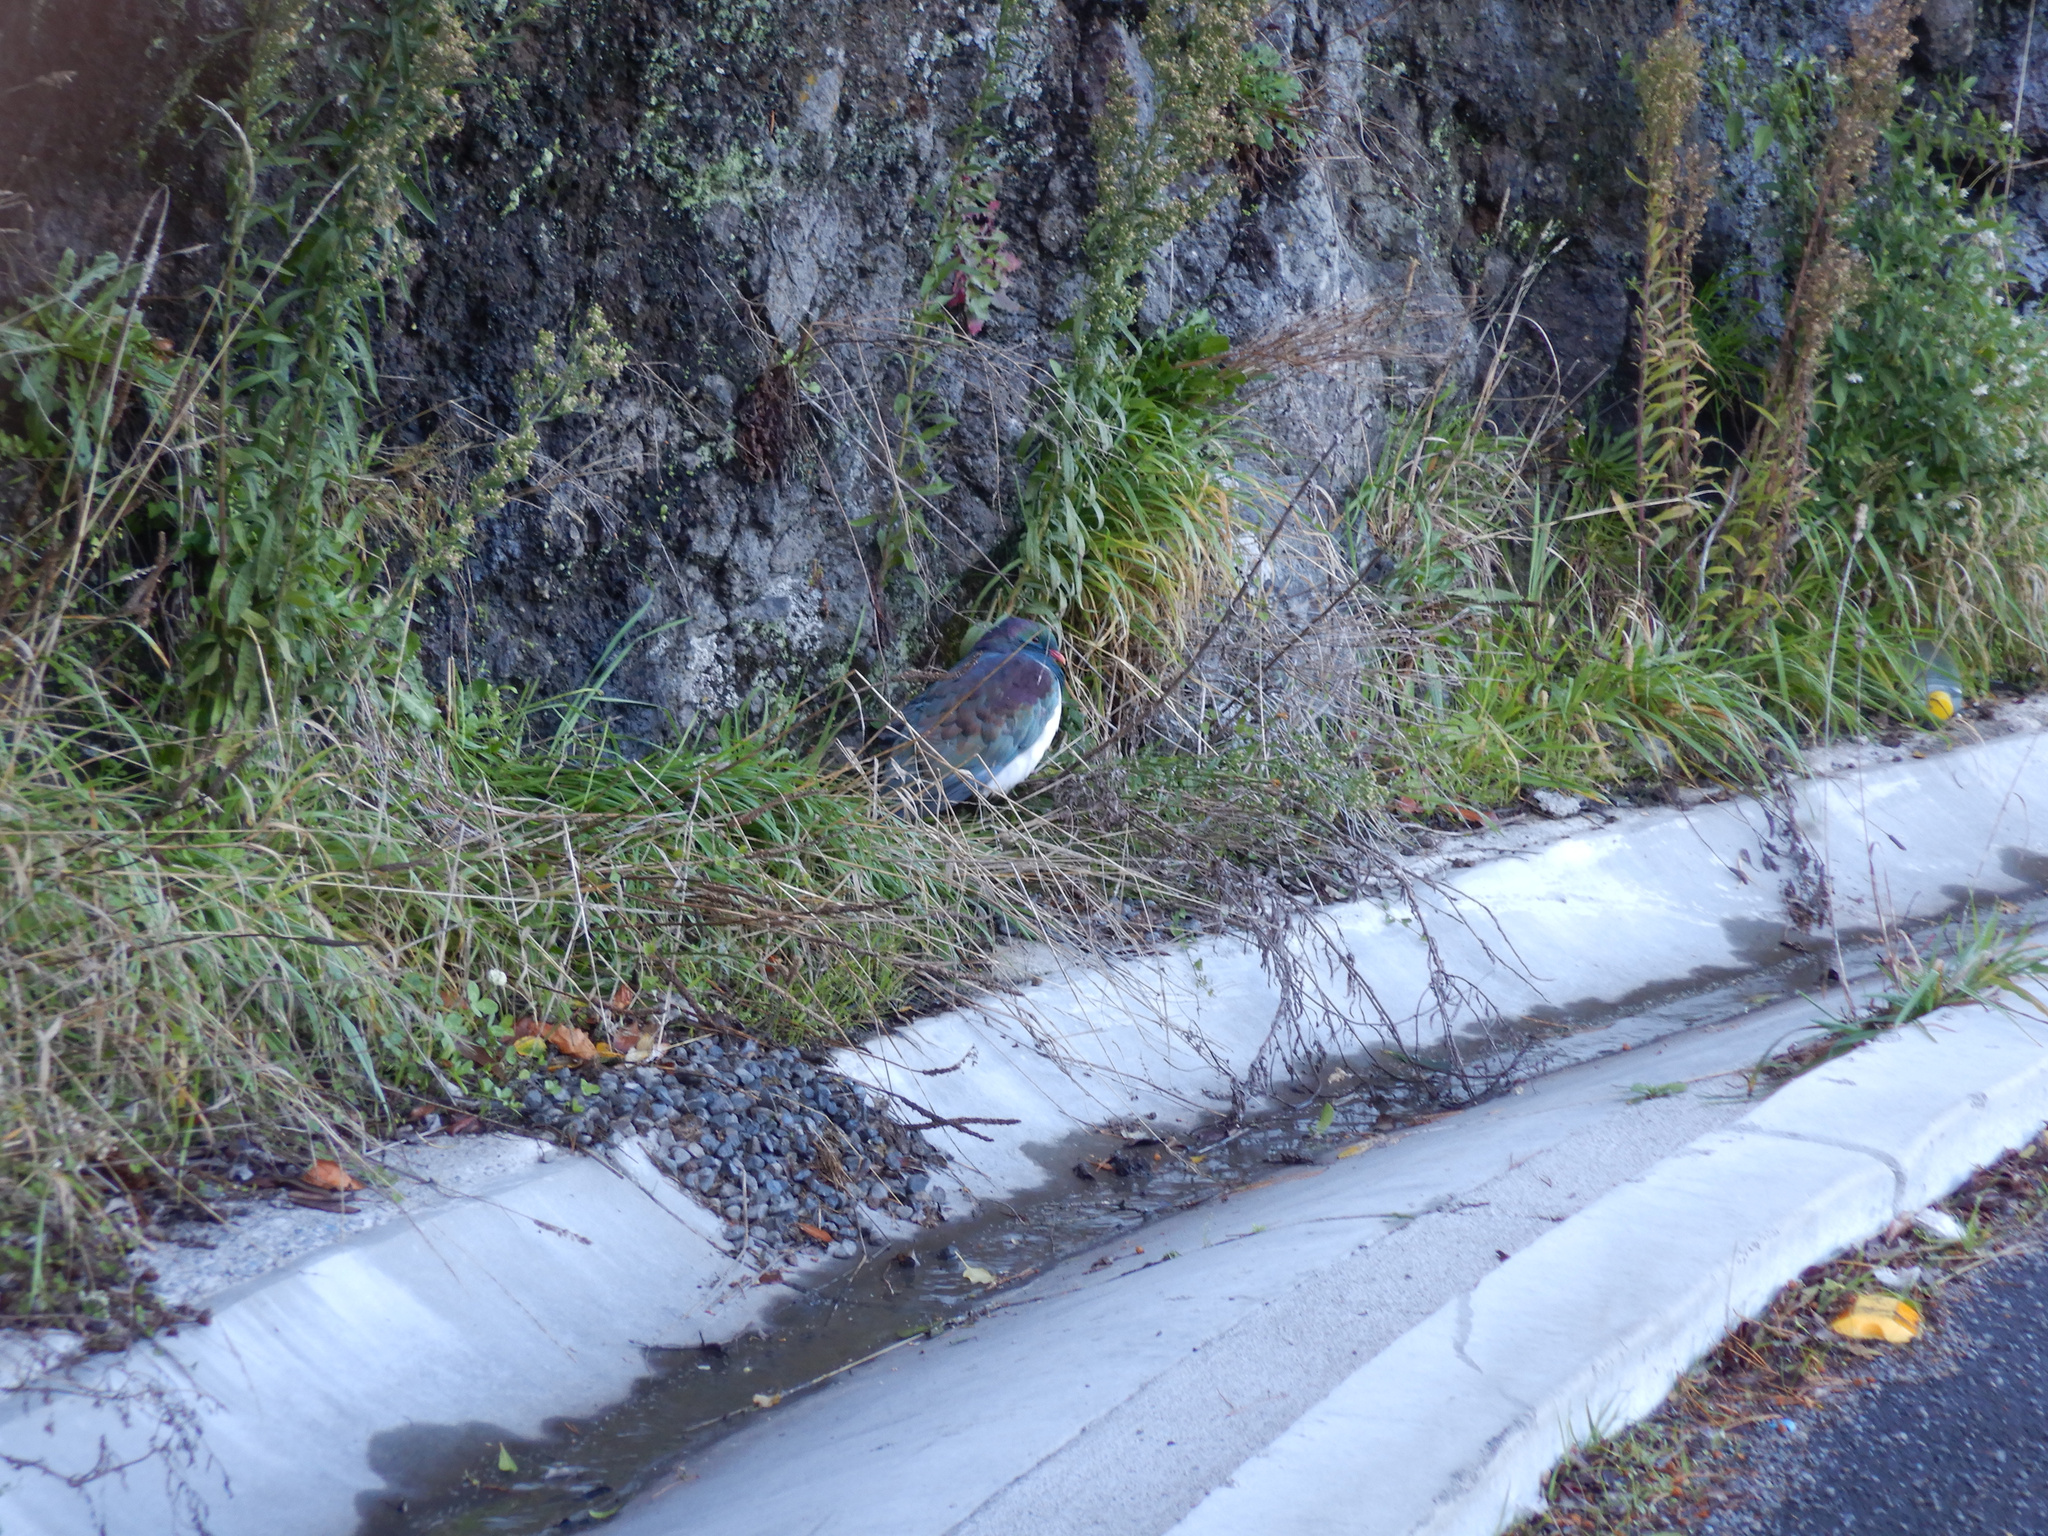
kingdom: Animalia
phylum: Chordata
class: Aves
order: Columbiformes
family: Columbidae
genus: Hemiphaga
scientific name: Hemiphaga novaeseelandiae
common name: New zealand pigeon
